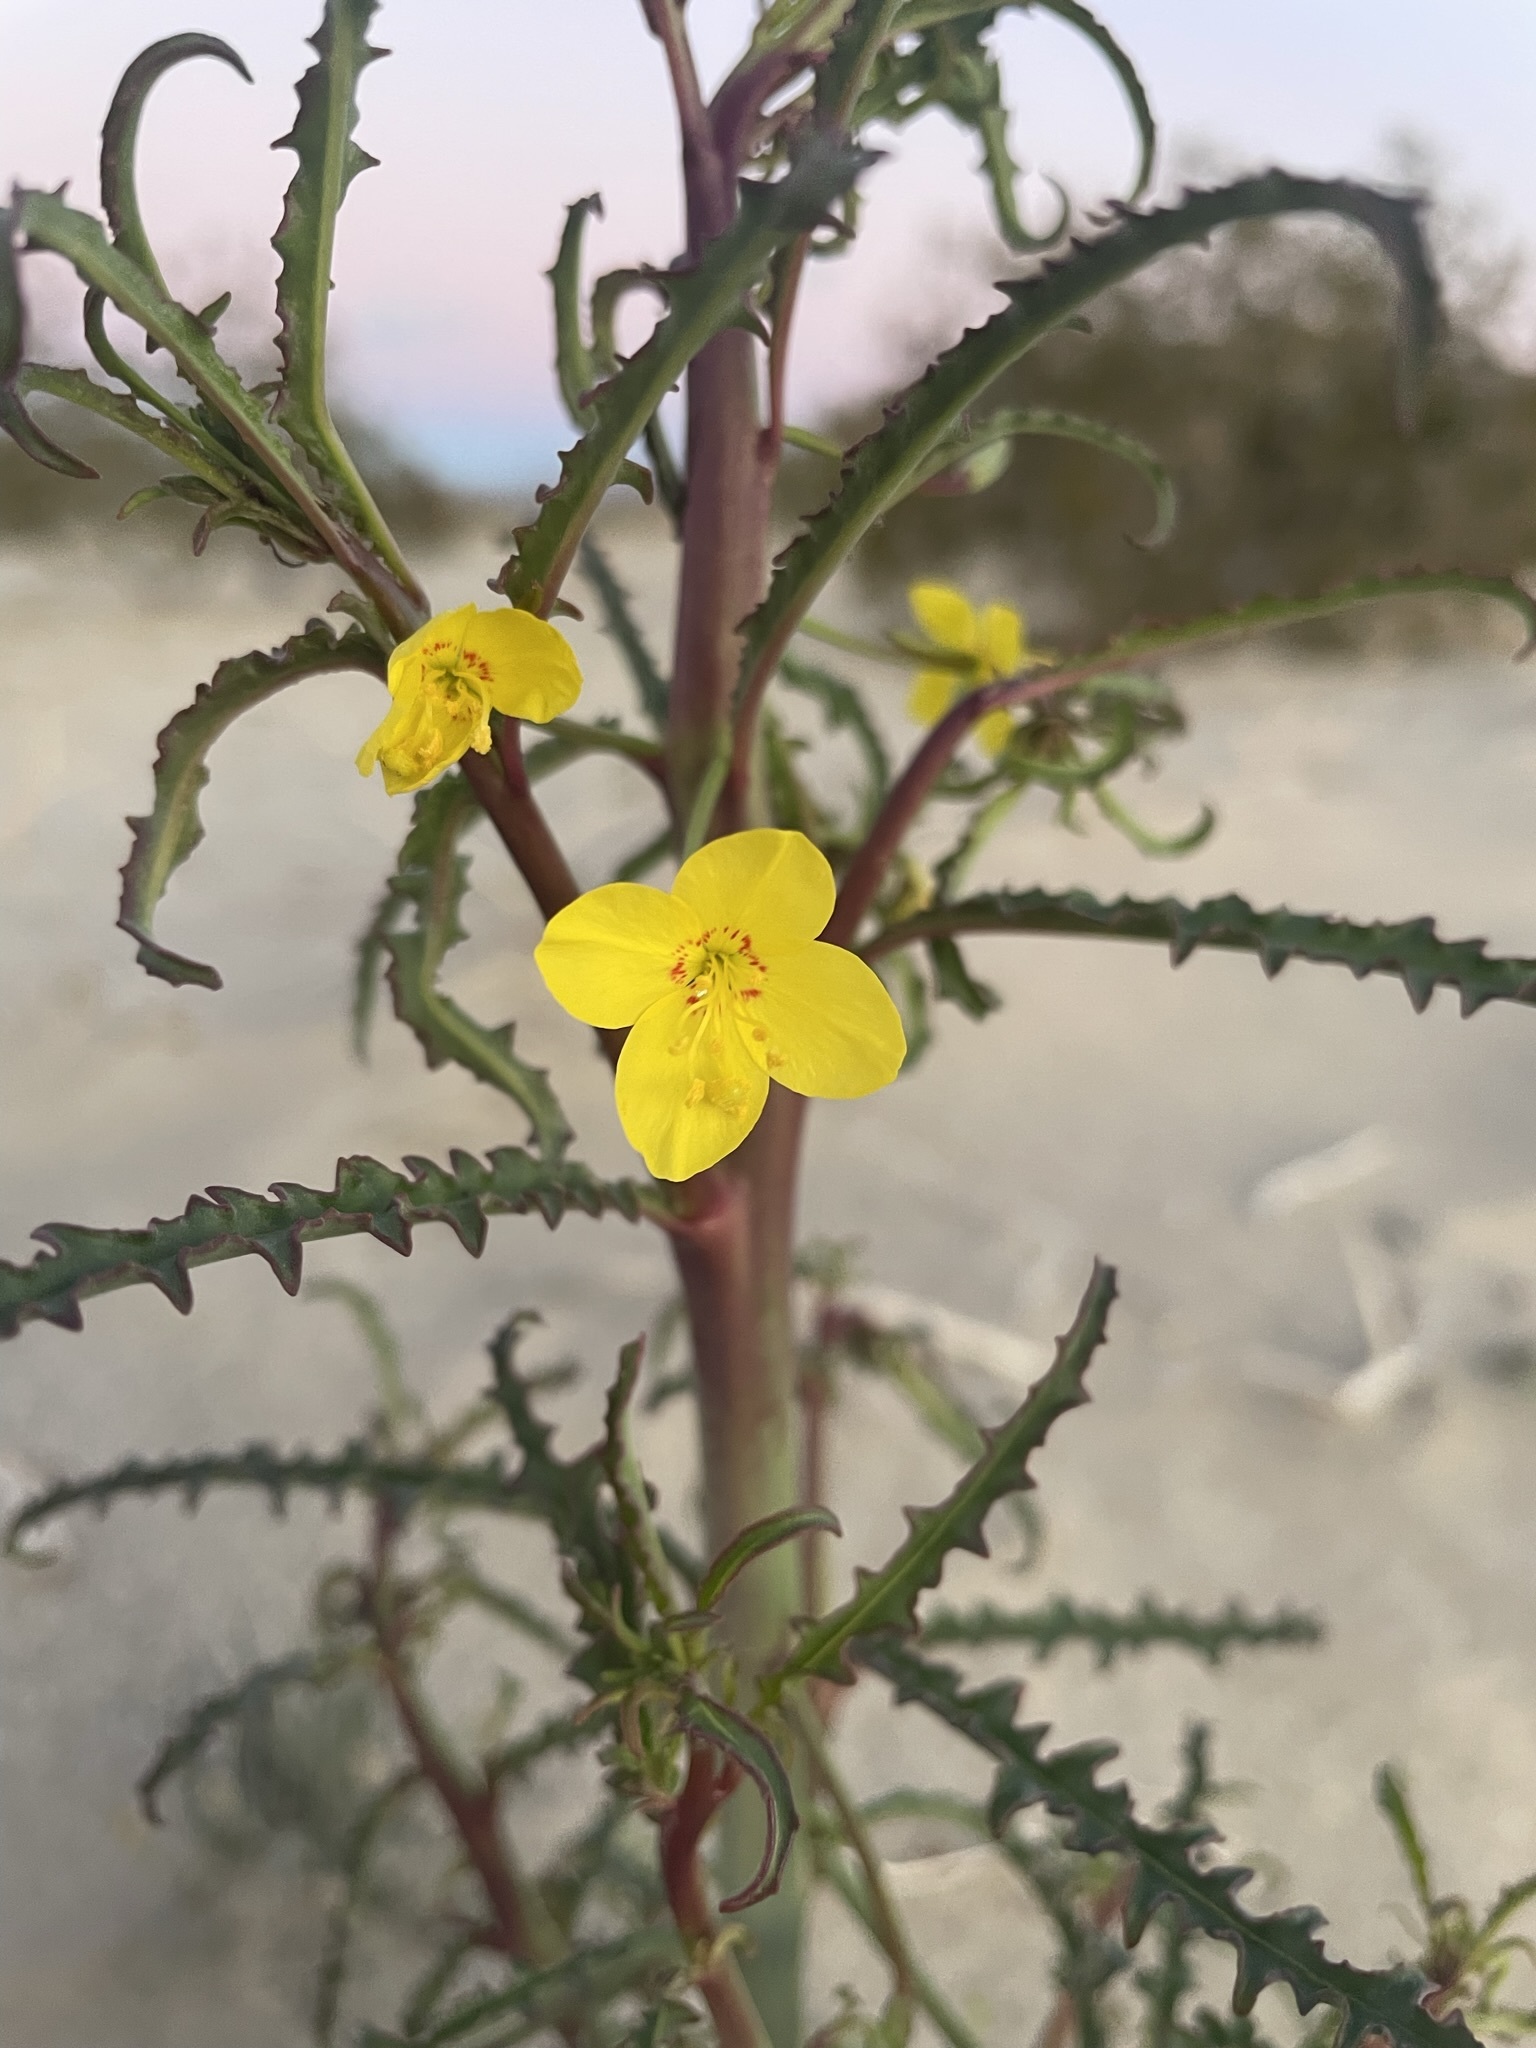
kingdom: Plantae
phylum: Tracheophyta
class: Magnoliopsida
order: Myrtales
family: Onagraceae
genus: Eulobus
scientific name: Eulobus californicus
